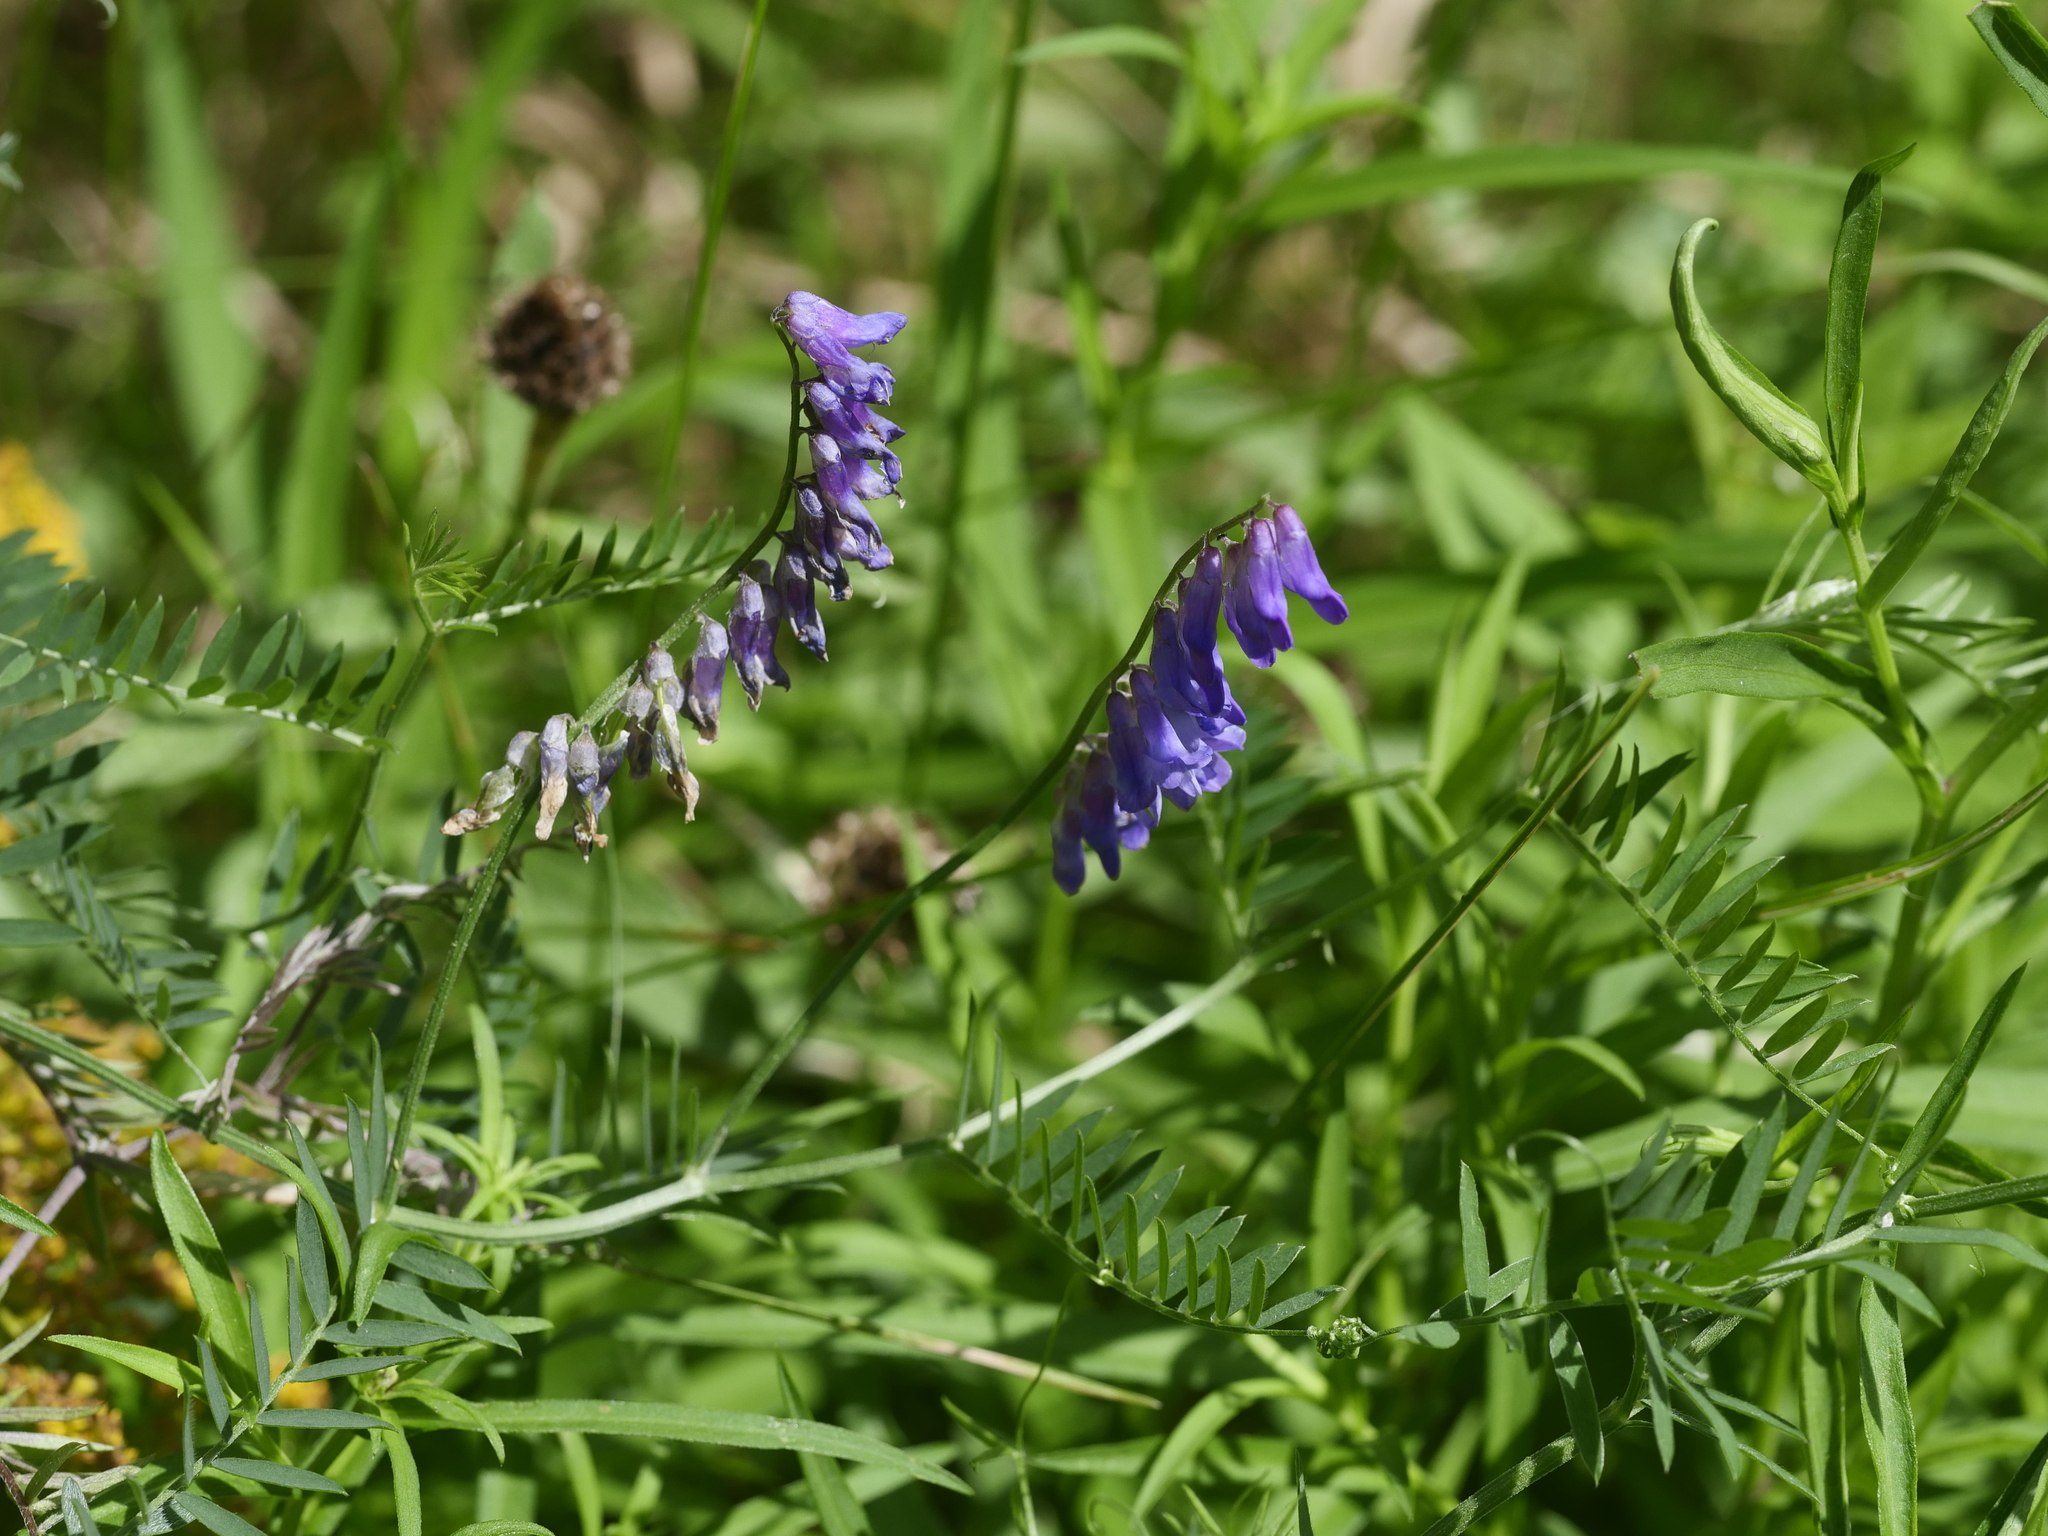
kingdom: Plantae
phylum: Tracheophyta
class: Magnoliopsida
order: Fabales
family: Fabaceae
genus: Vicia
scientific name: Vicia cracca
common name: Bird vetch
